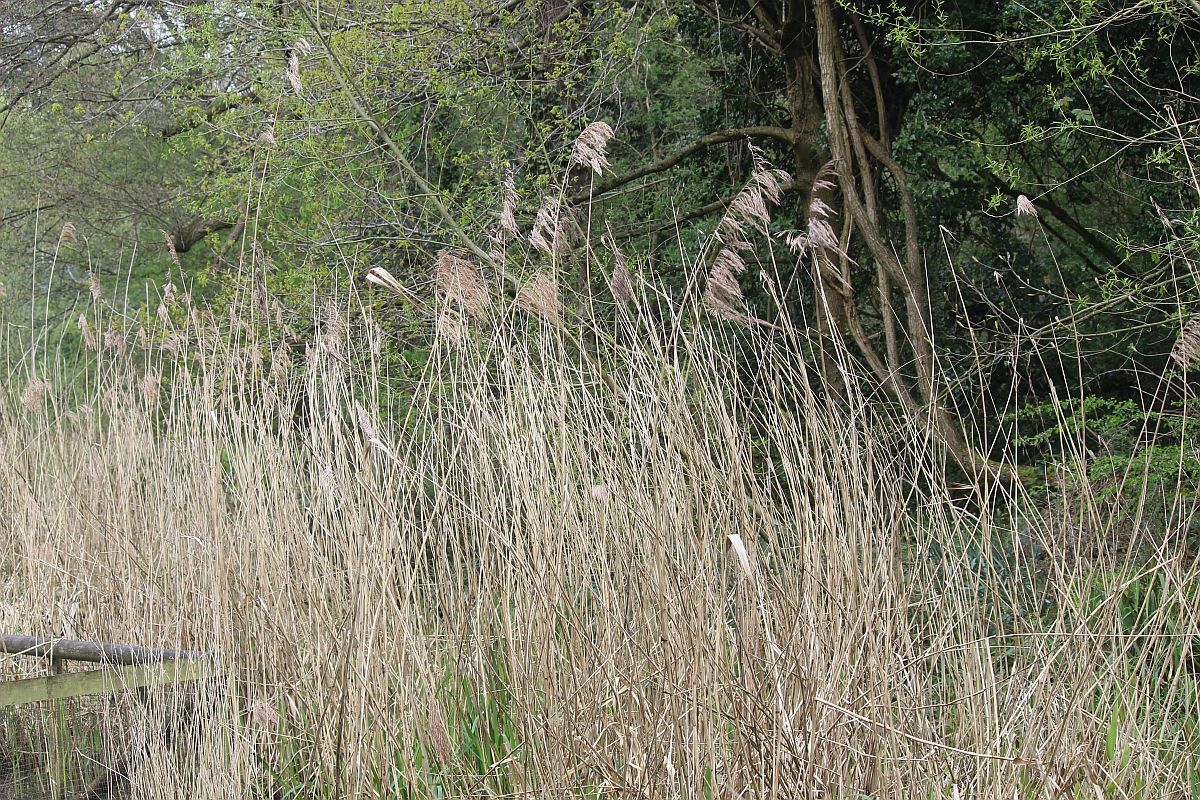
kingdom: Plantae
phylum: Tracheophyta
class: Liliopsida
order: Poales
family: Poaceae
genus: Phragmites
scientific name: Phragmites australis
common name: Common reed
